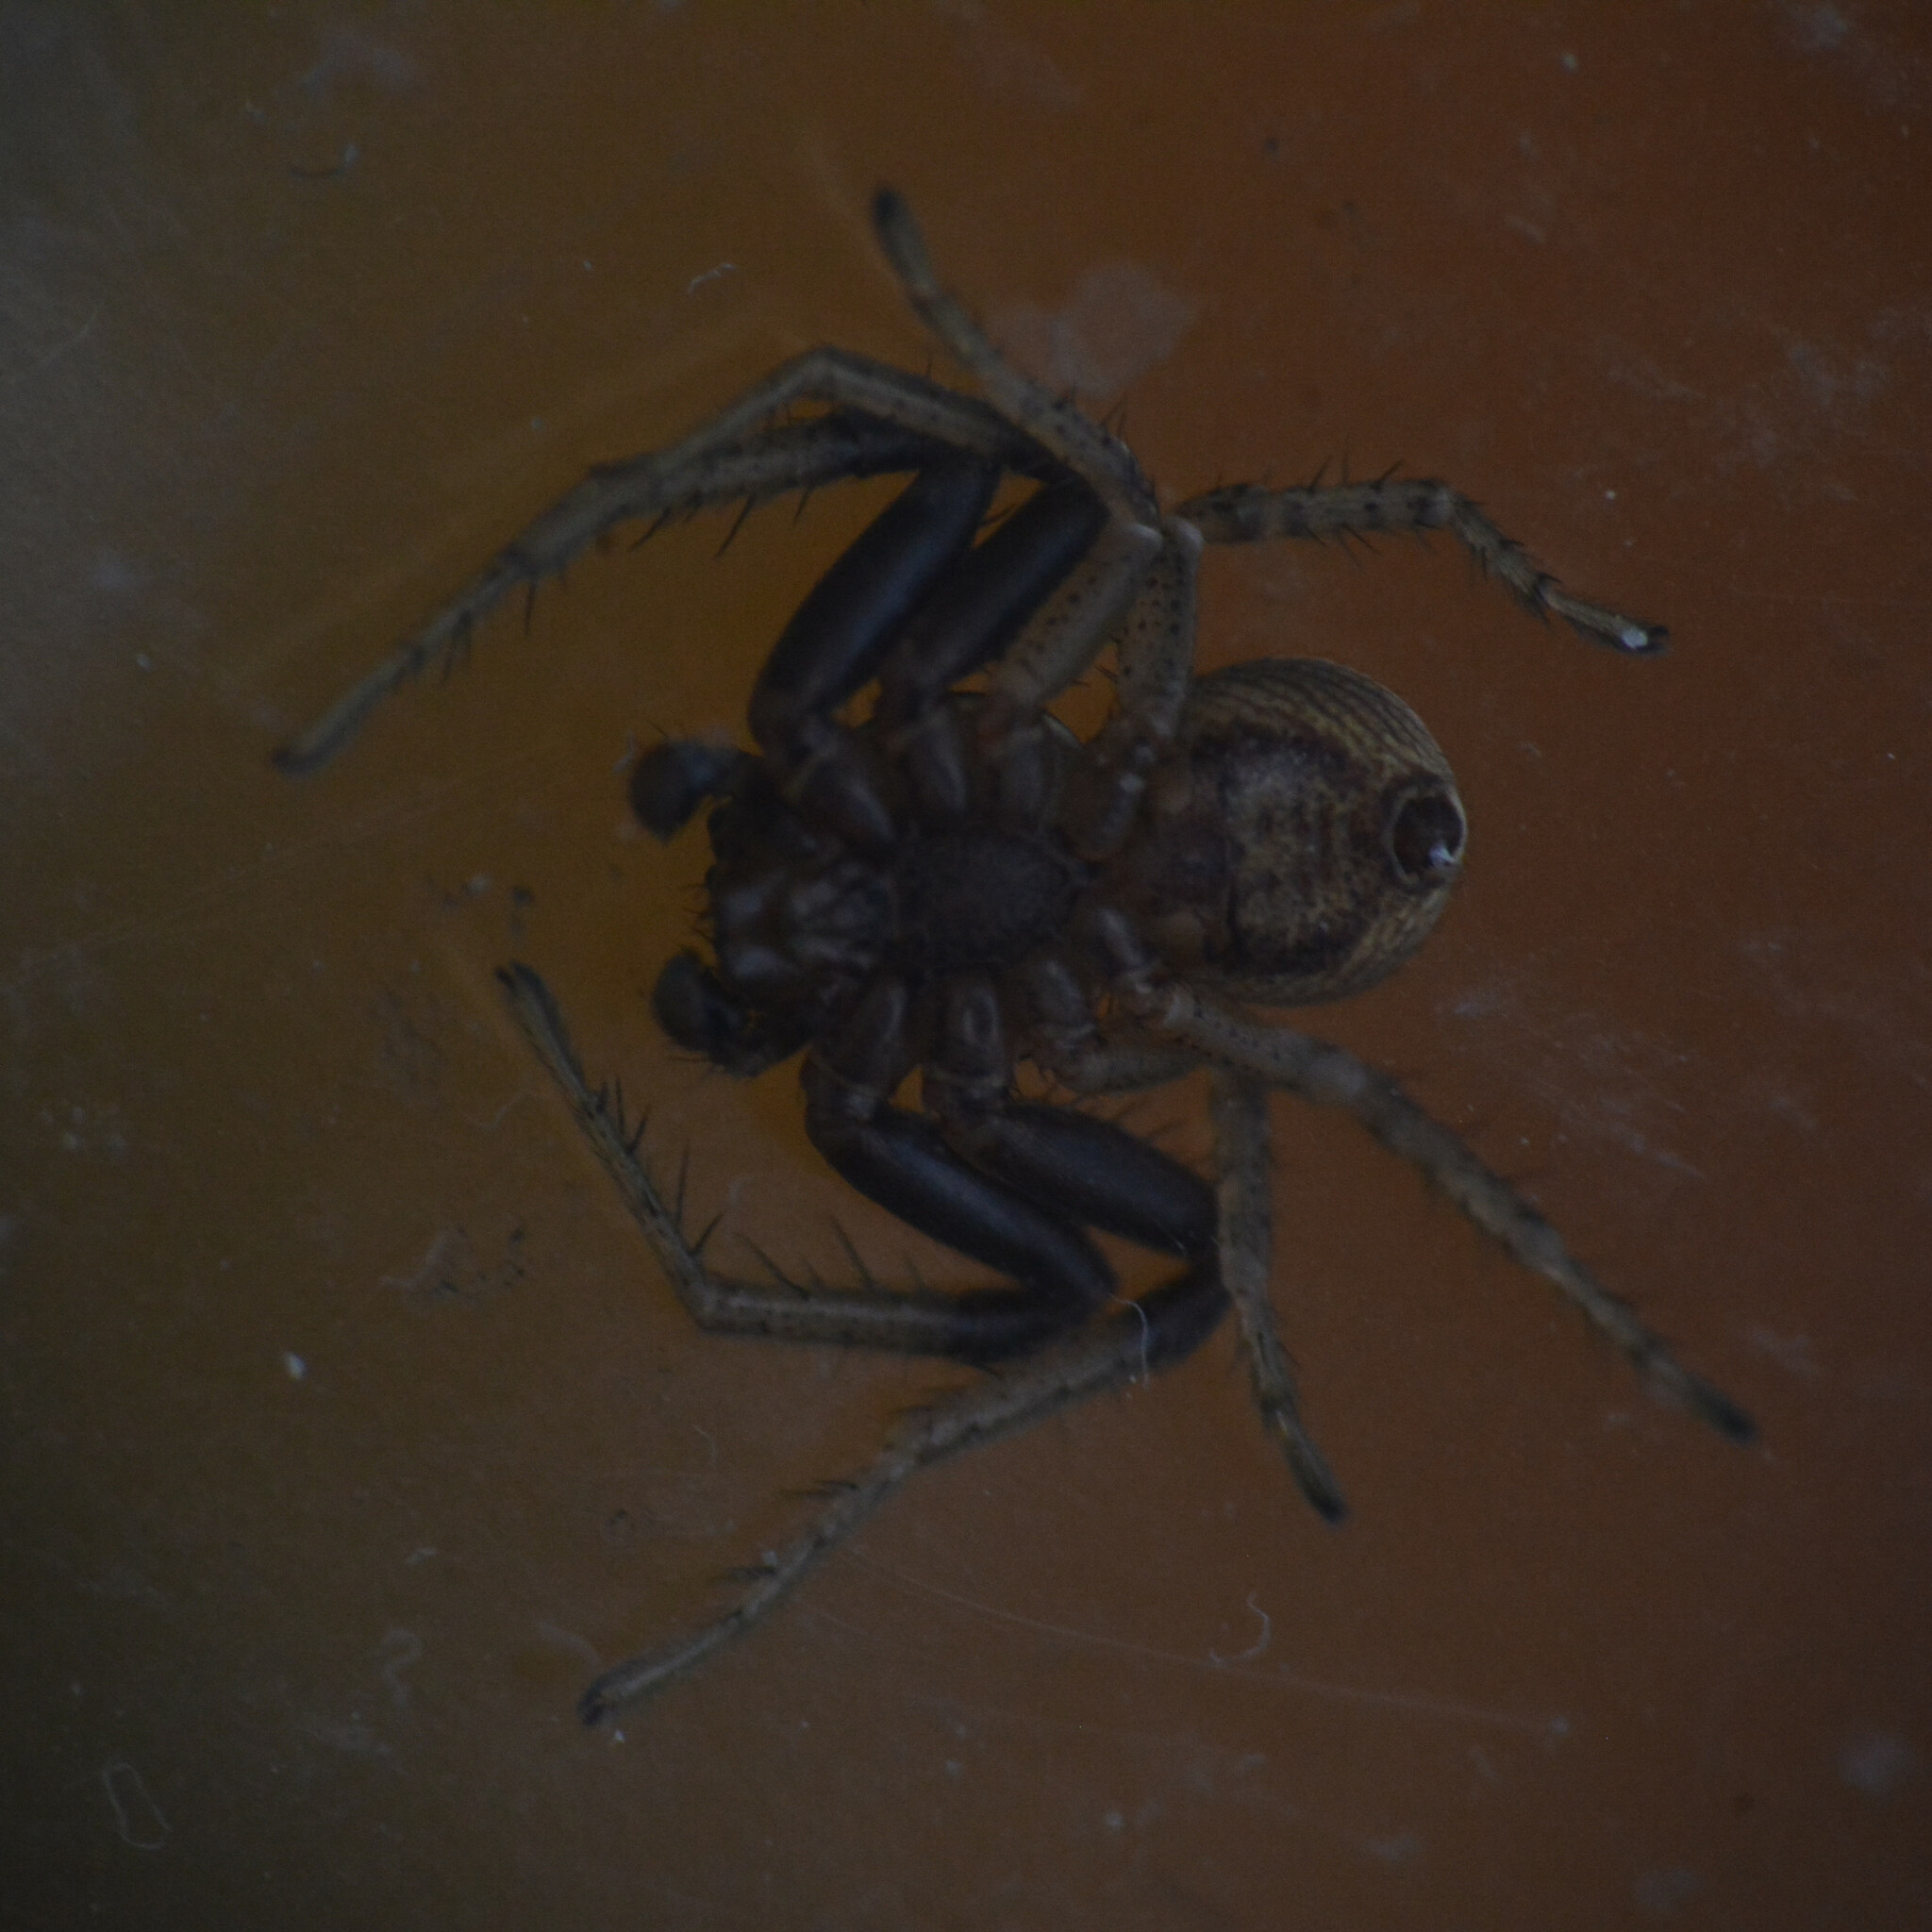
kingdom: Animalia
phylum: Arthropoda
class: Arachnida
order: Araneae
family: Thomisidae
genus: Xysticus
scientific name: Xysticus ulmi
